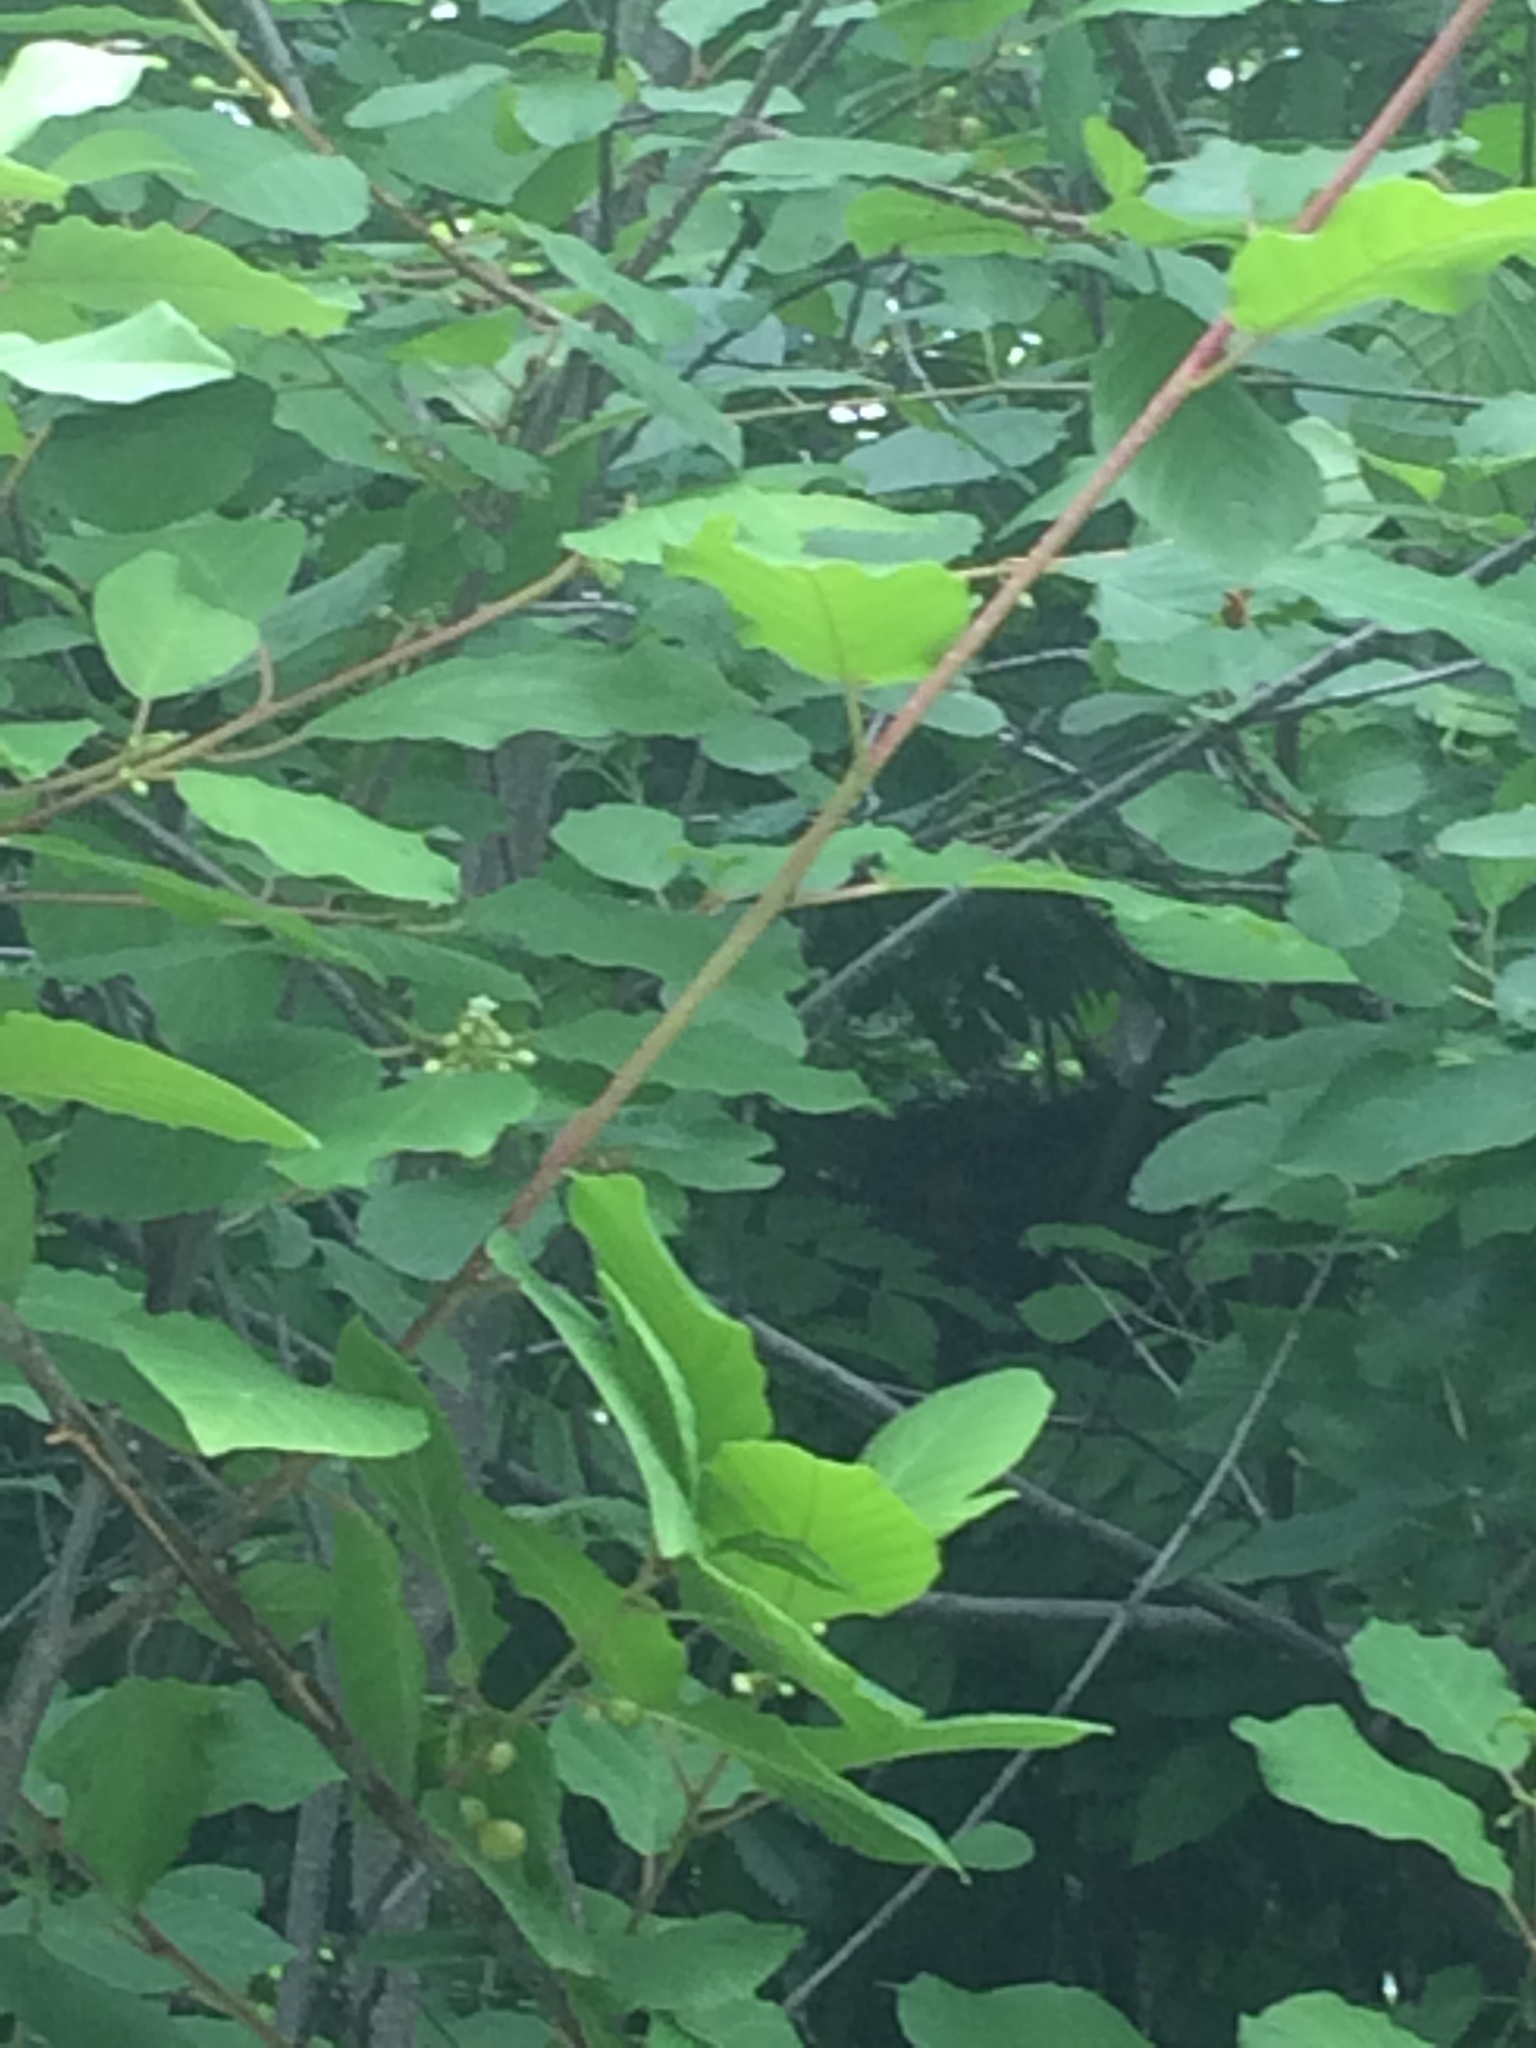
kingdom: Animalia
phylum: Chordata
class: Aves
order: Passeriformes
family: Mimidae
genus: Dumetella
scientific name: Dumetella carolinensis
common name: Gray catbird
